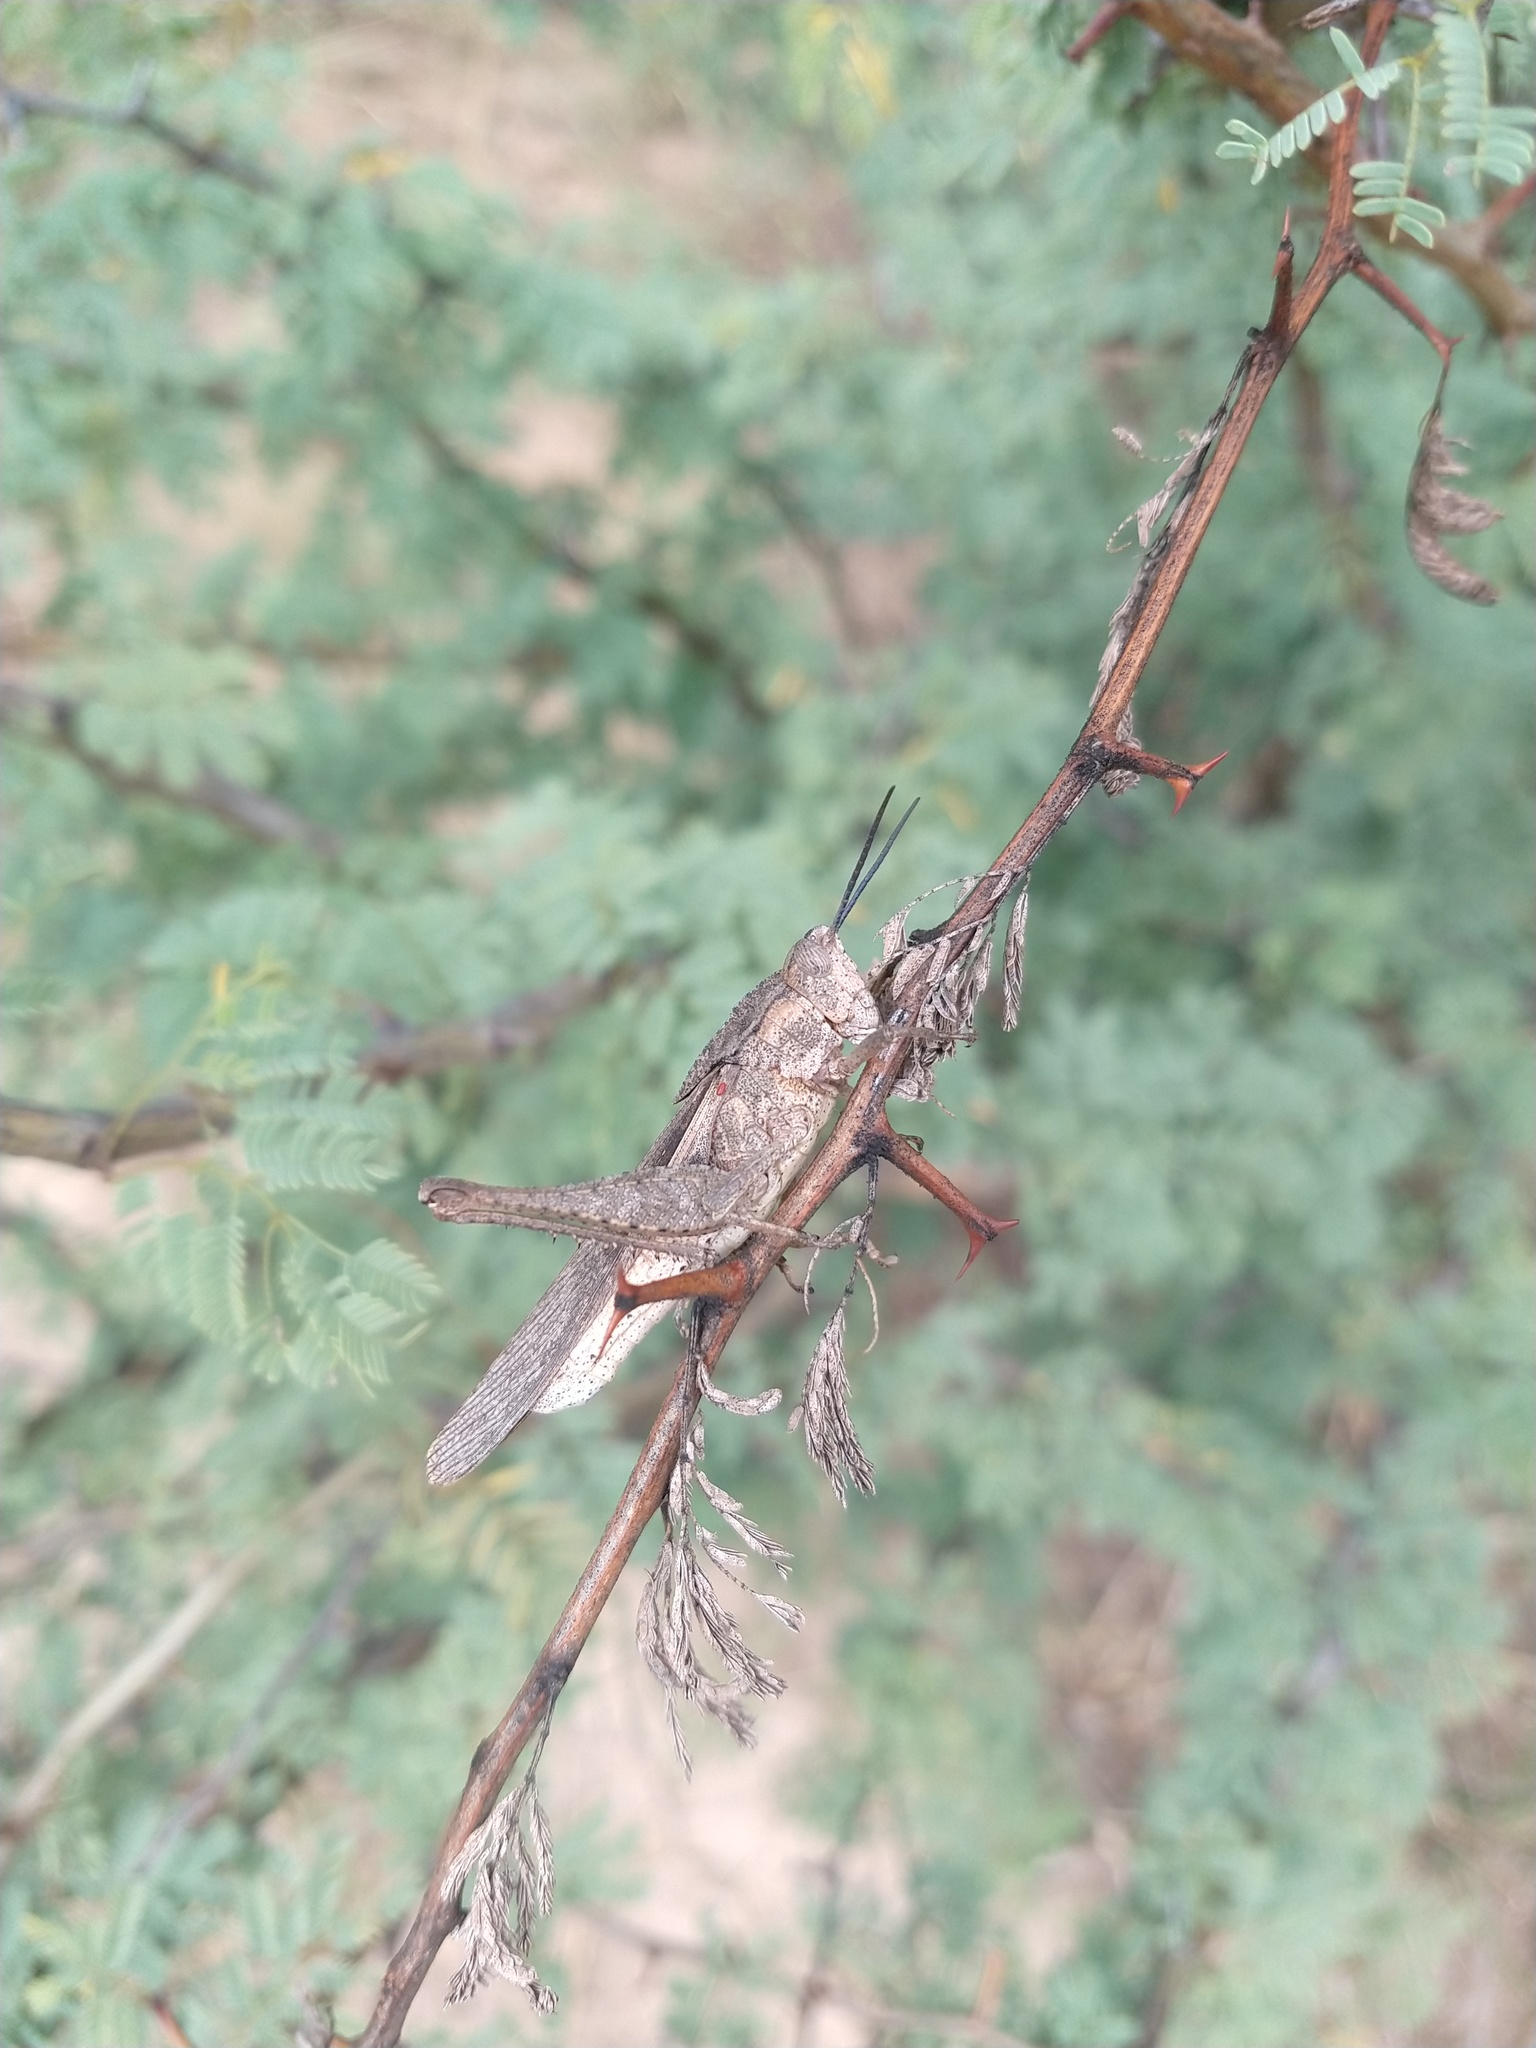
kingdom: Animalia
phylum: Arthropoda
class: Insecta
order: Orthoptera
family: Romaleidae
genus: Xyleus
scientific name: Xyleus insignis
